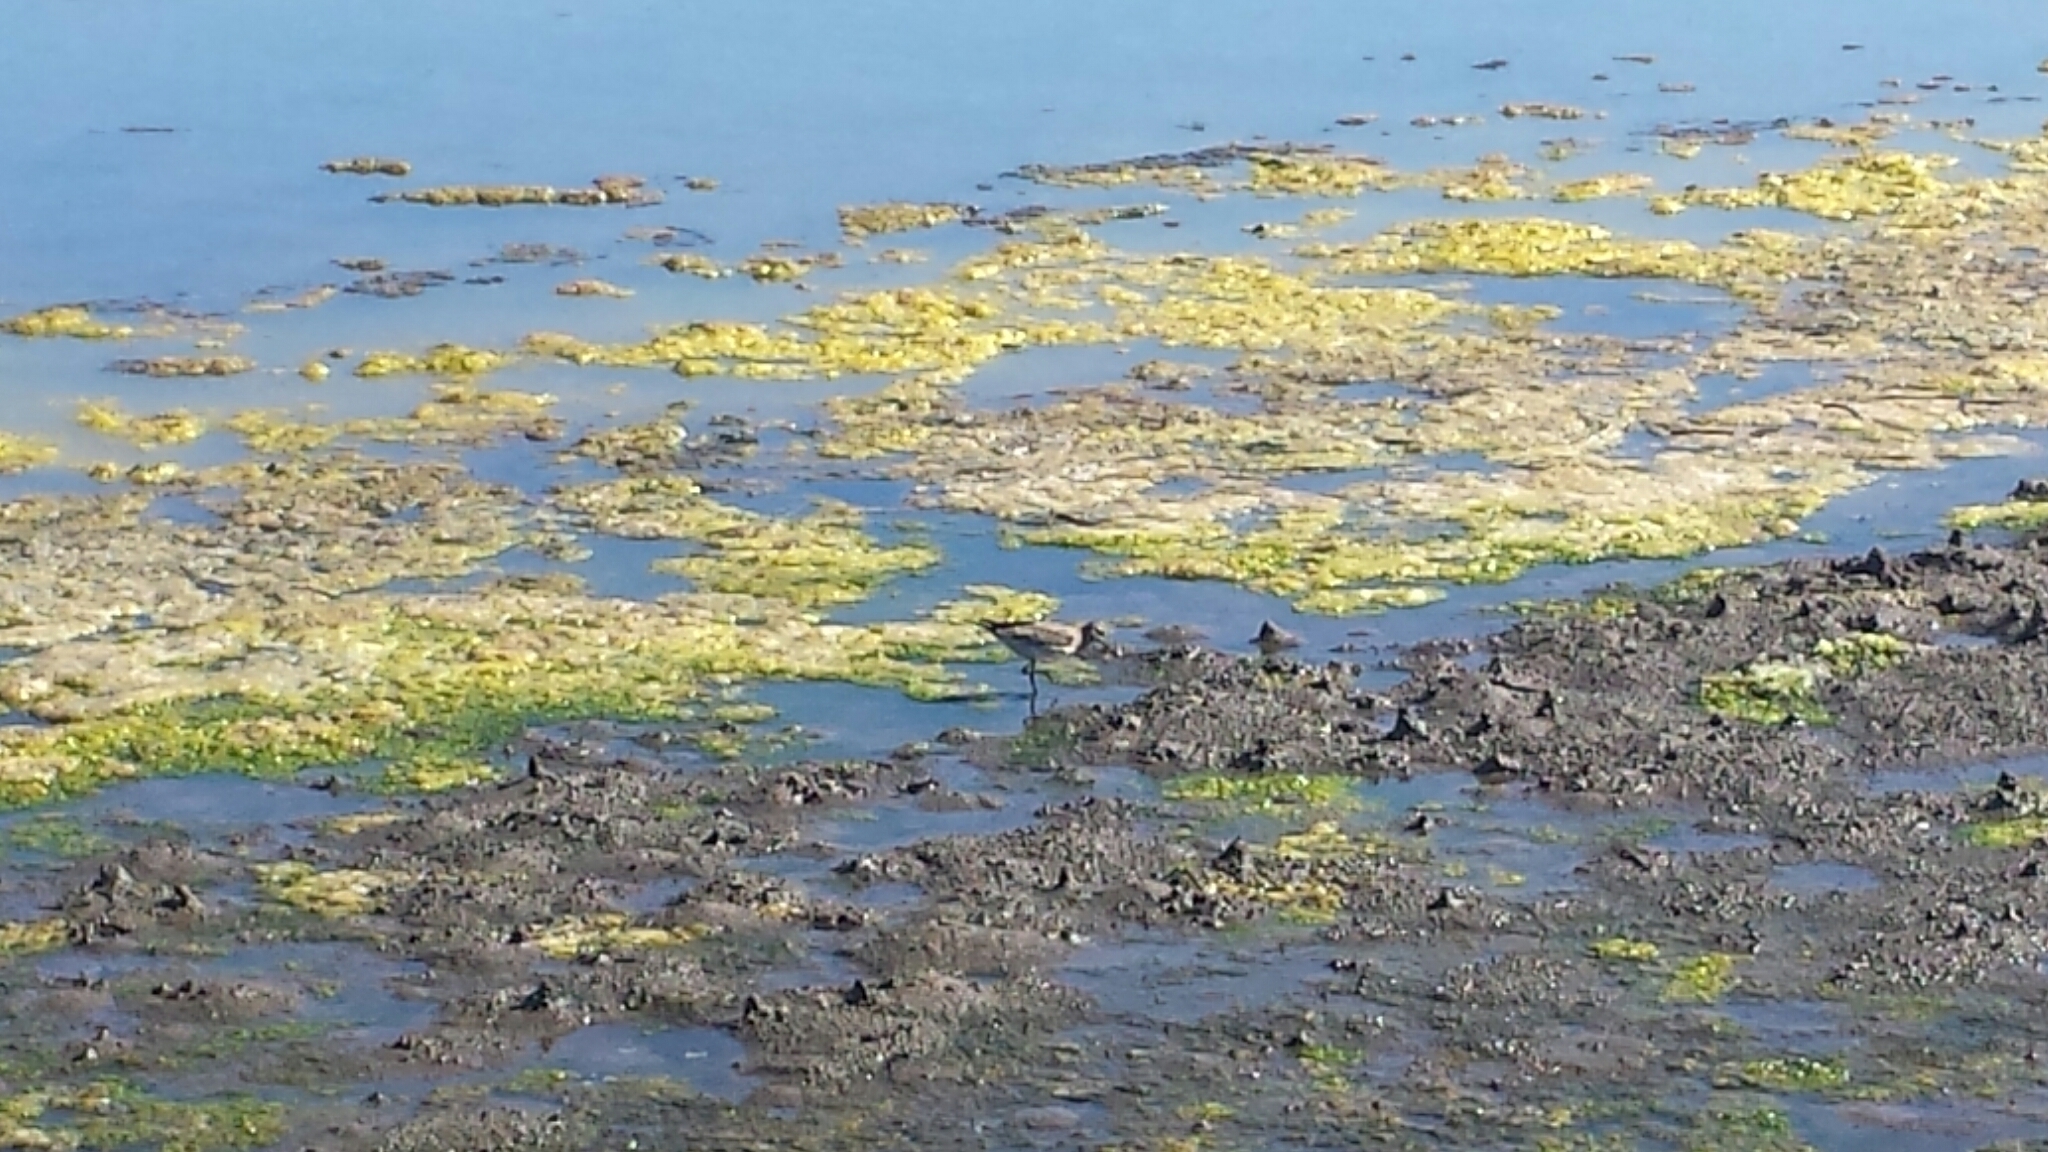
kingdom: Animalia
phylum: Chordata
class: Aves
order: Charadriiformes
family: Scolopacidae
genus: Tringa
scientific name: Tringa semipalmata
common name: Willet
